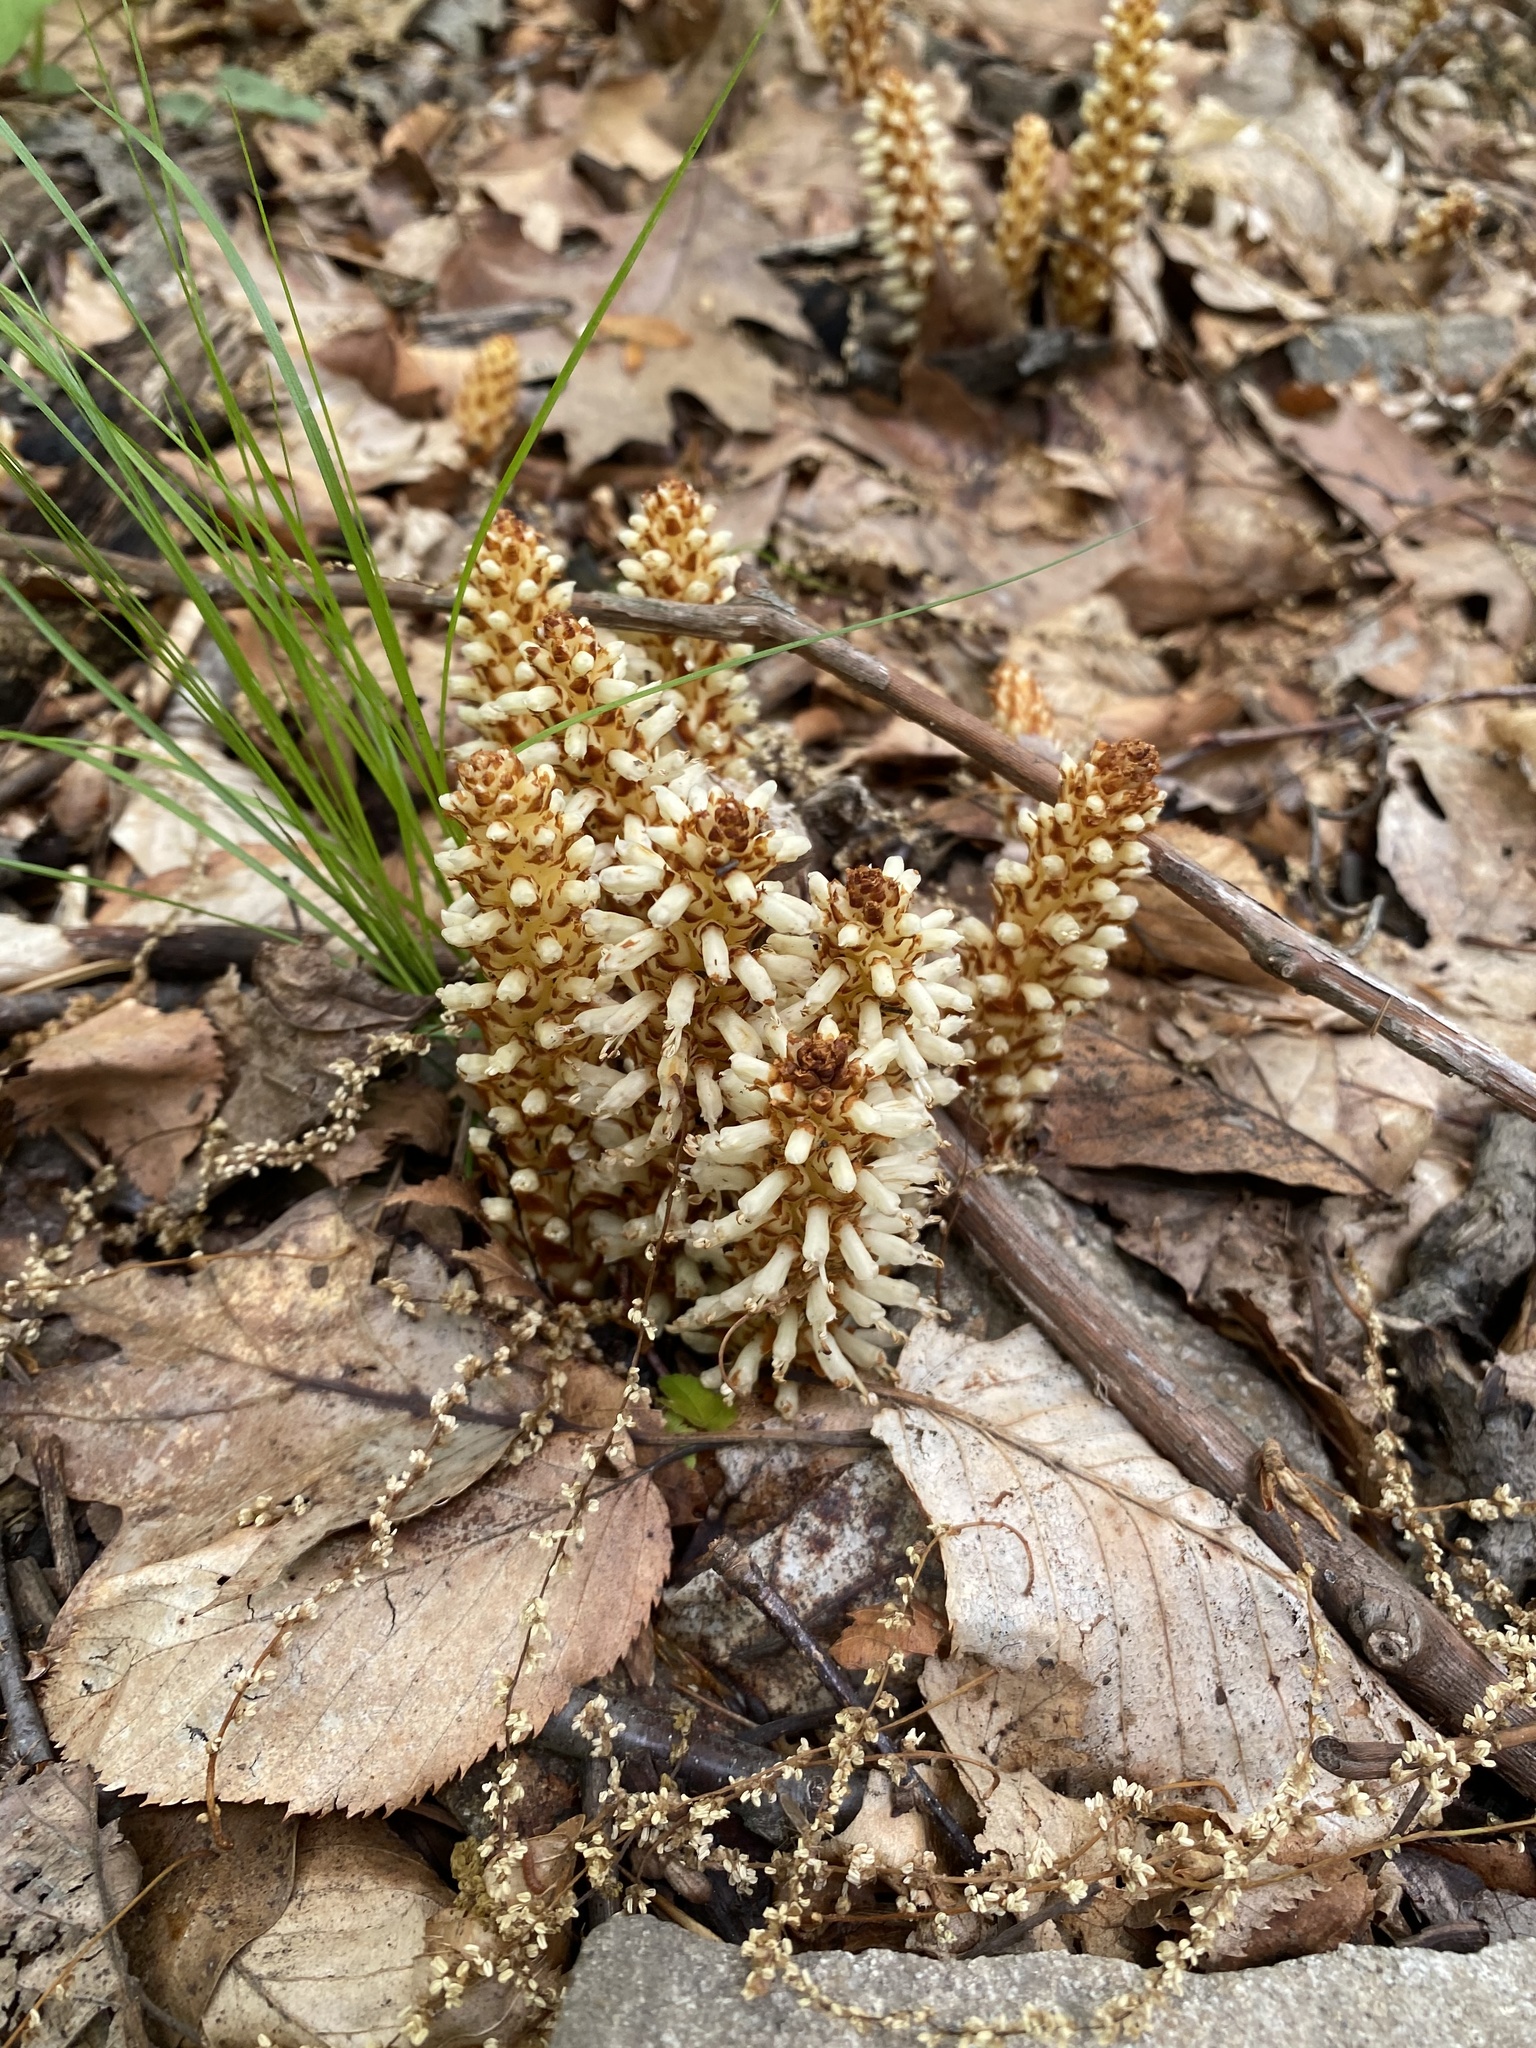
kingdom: Plantae
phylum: Tracheophyta
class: Magnoliopsida
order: Lamiales
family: Orobanchaceae
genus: Conopholis
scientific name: Conopholis americana
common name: American cancer-root
